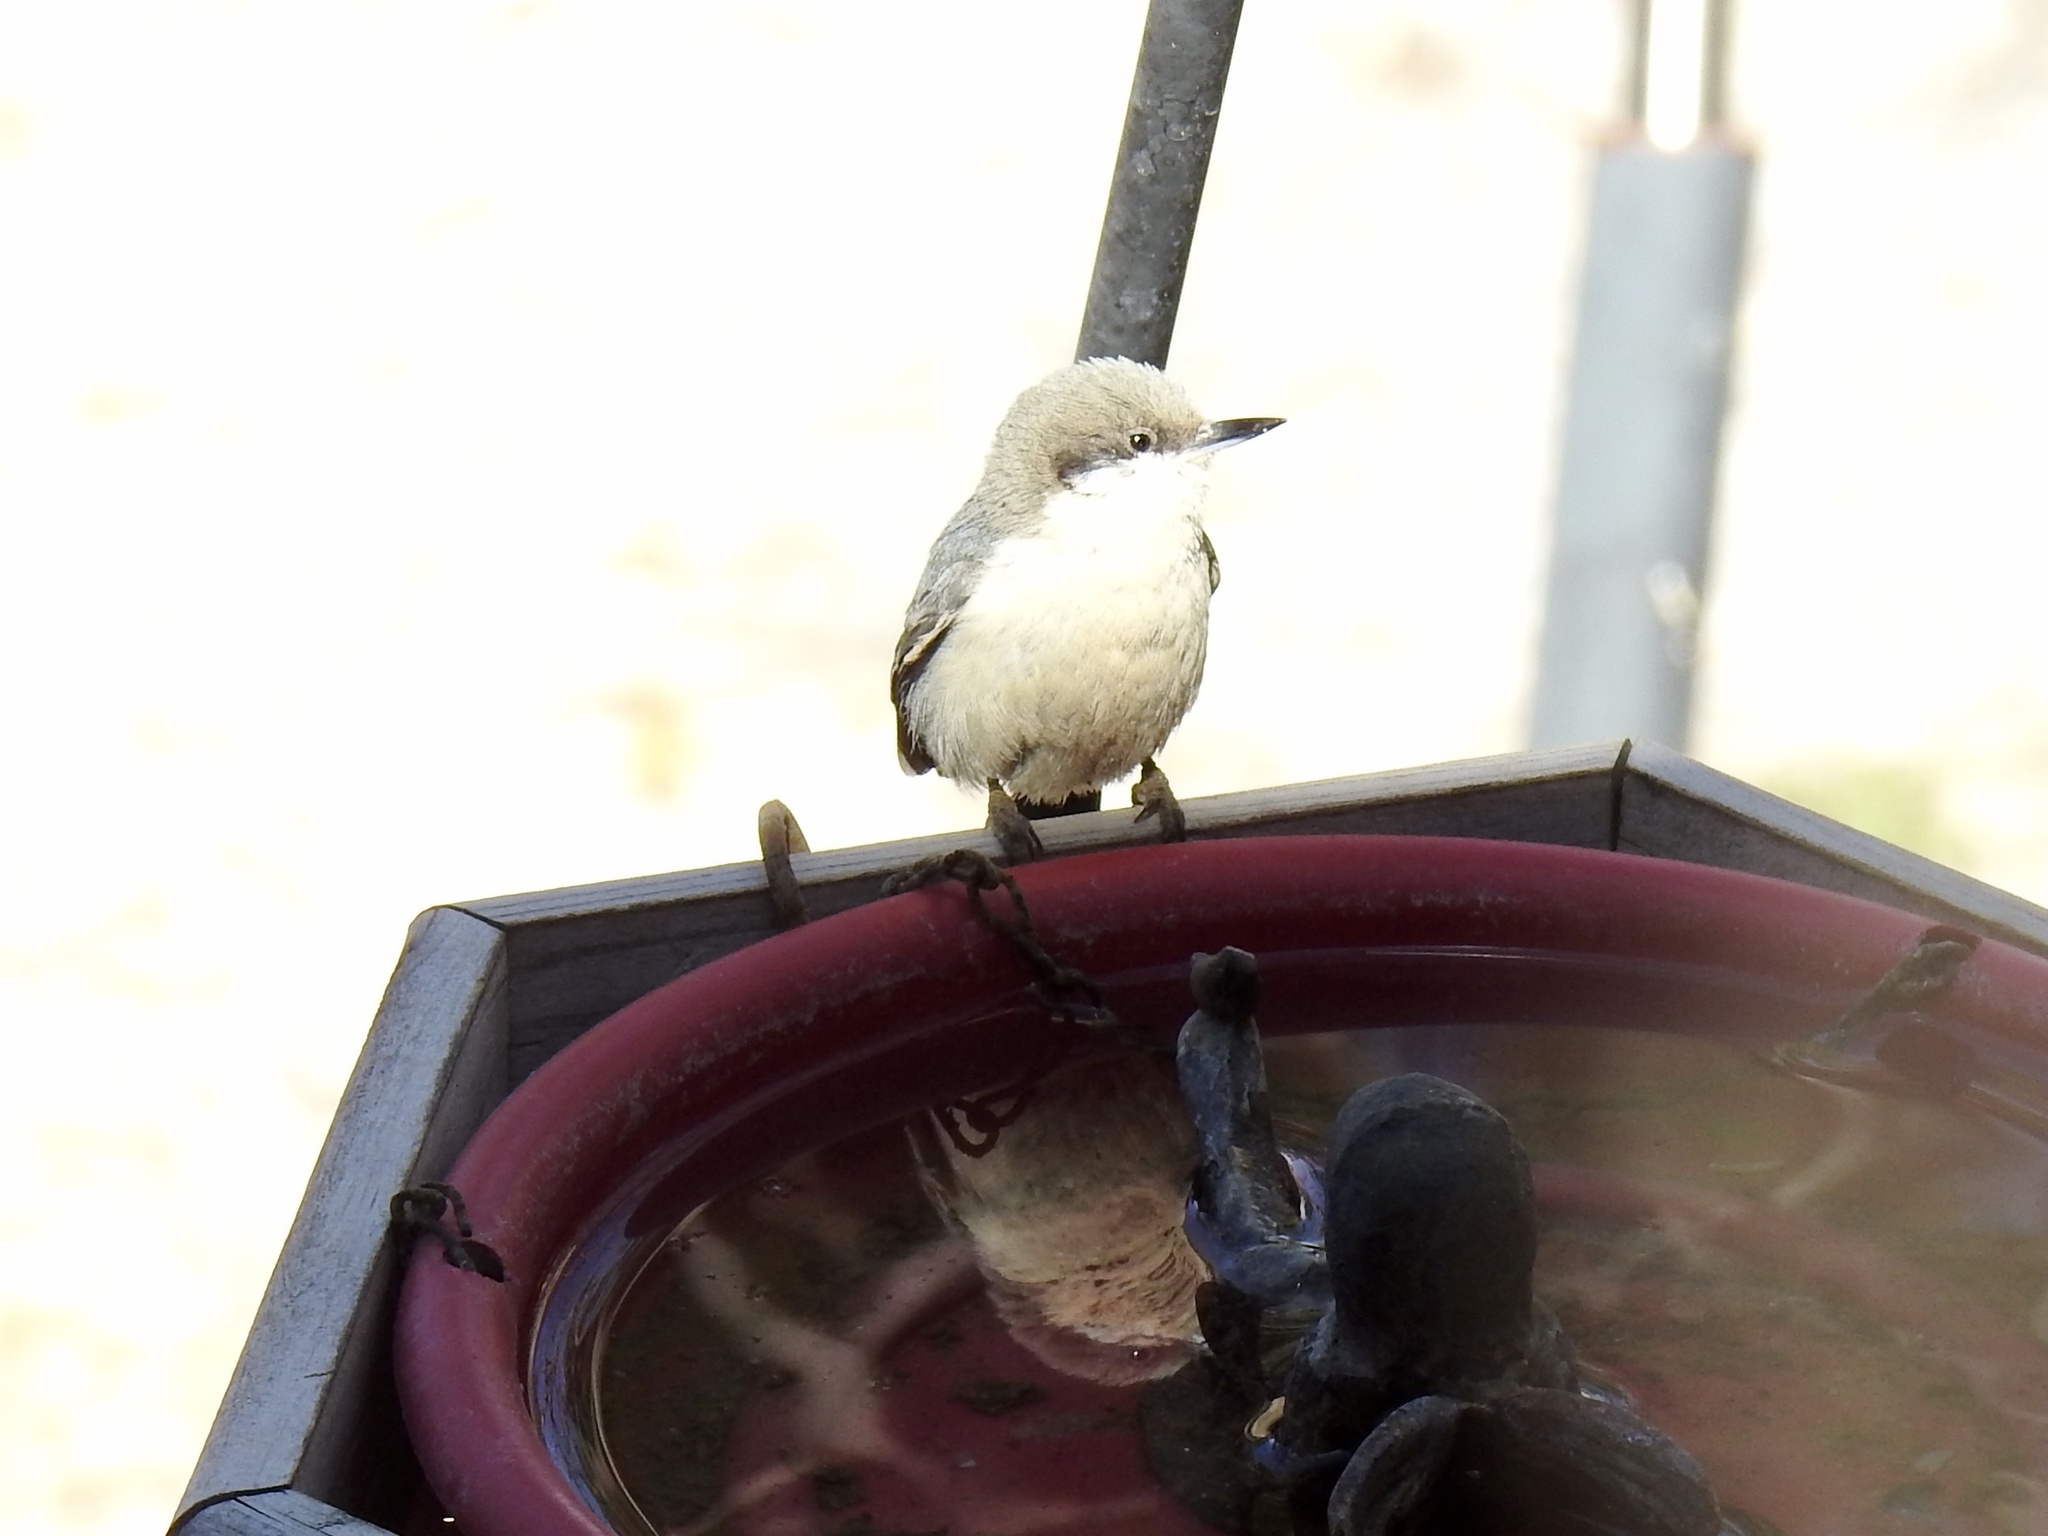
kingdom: Animalia
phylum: Chordata
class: Aves
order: Passeriformes
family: Sittidae
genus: Sitta
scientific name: Sitta pygmaea
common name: Pygmy nuthatch
